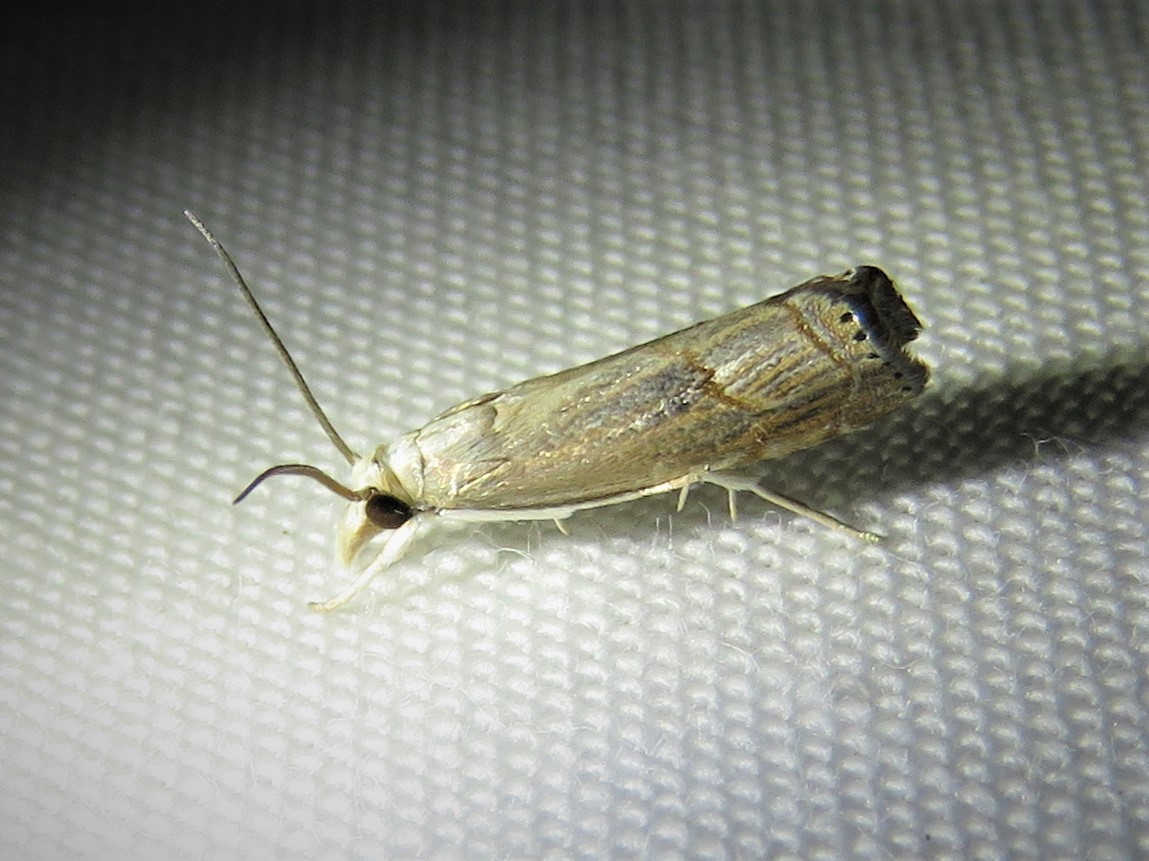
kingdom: Animalia
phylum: Arthropoda
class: Insecta
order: Lepidoptera
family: Crambidae
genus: Parapediasia
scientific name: Parapediasia teterellus
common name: Bluegrass webworm moth
